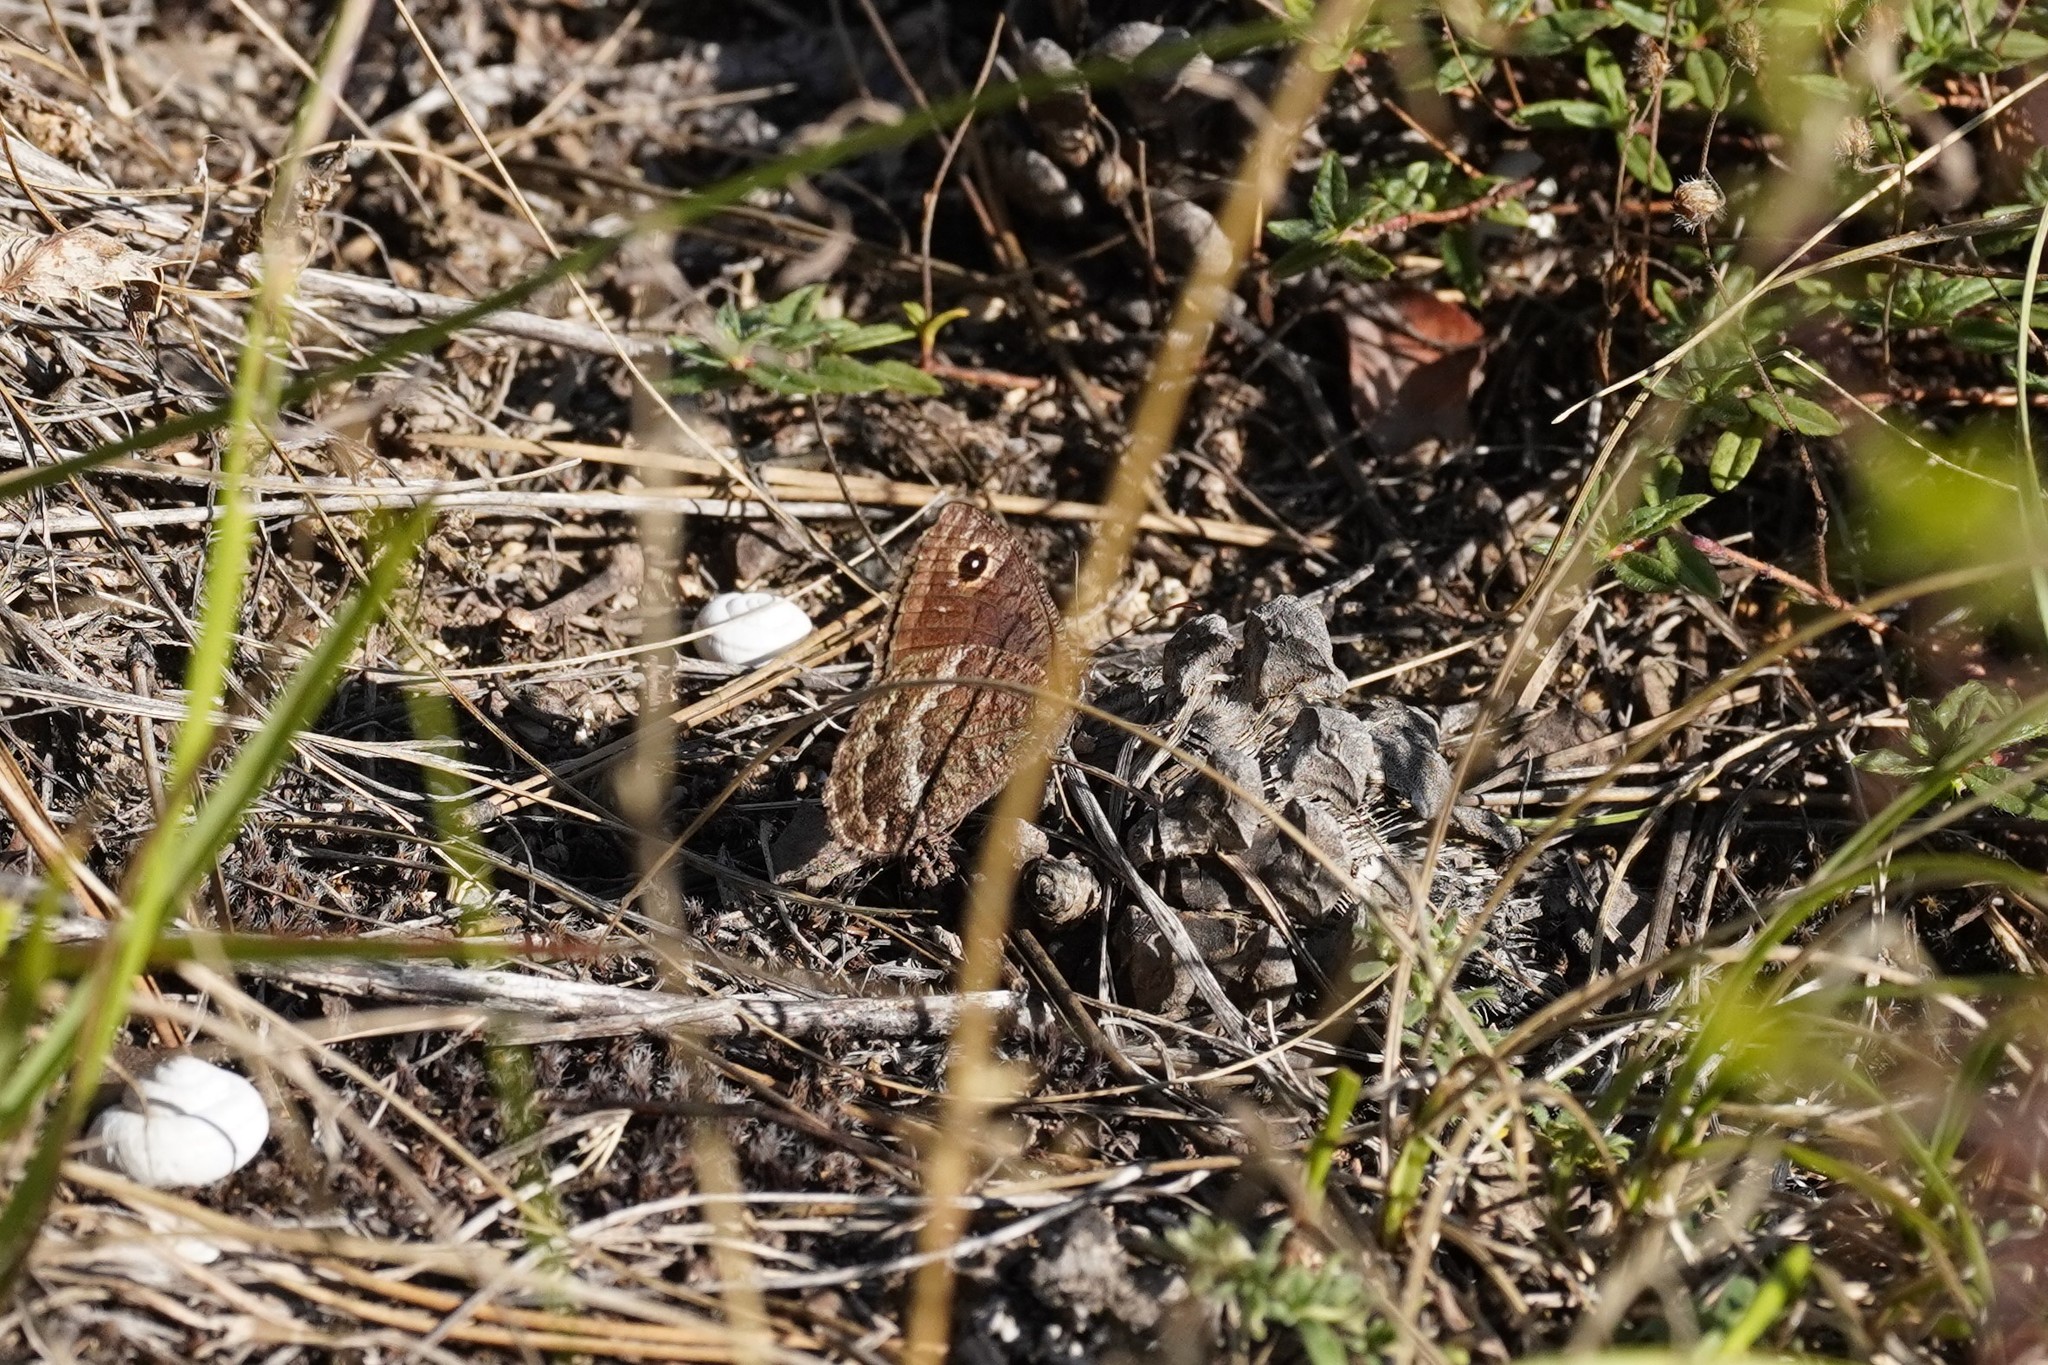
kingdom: Animalia
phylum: Arthropoda
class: Insecta
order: Lepidoptera
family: Nymphalidae
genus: Satyrus
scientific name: Satyrus actaea
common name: Black satyr
